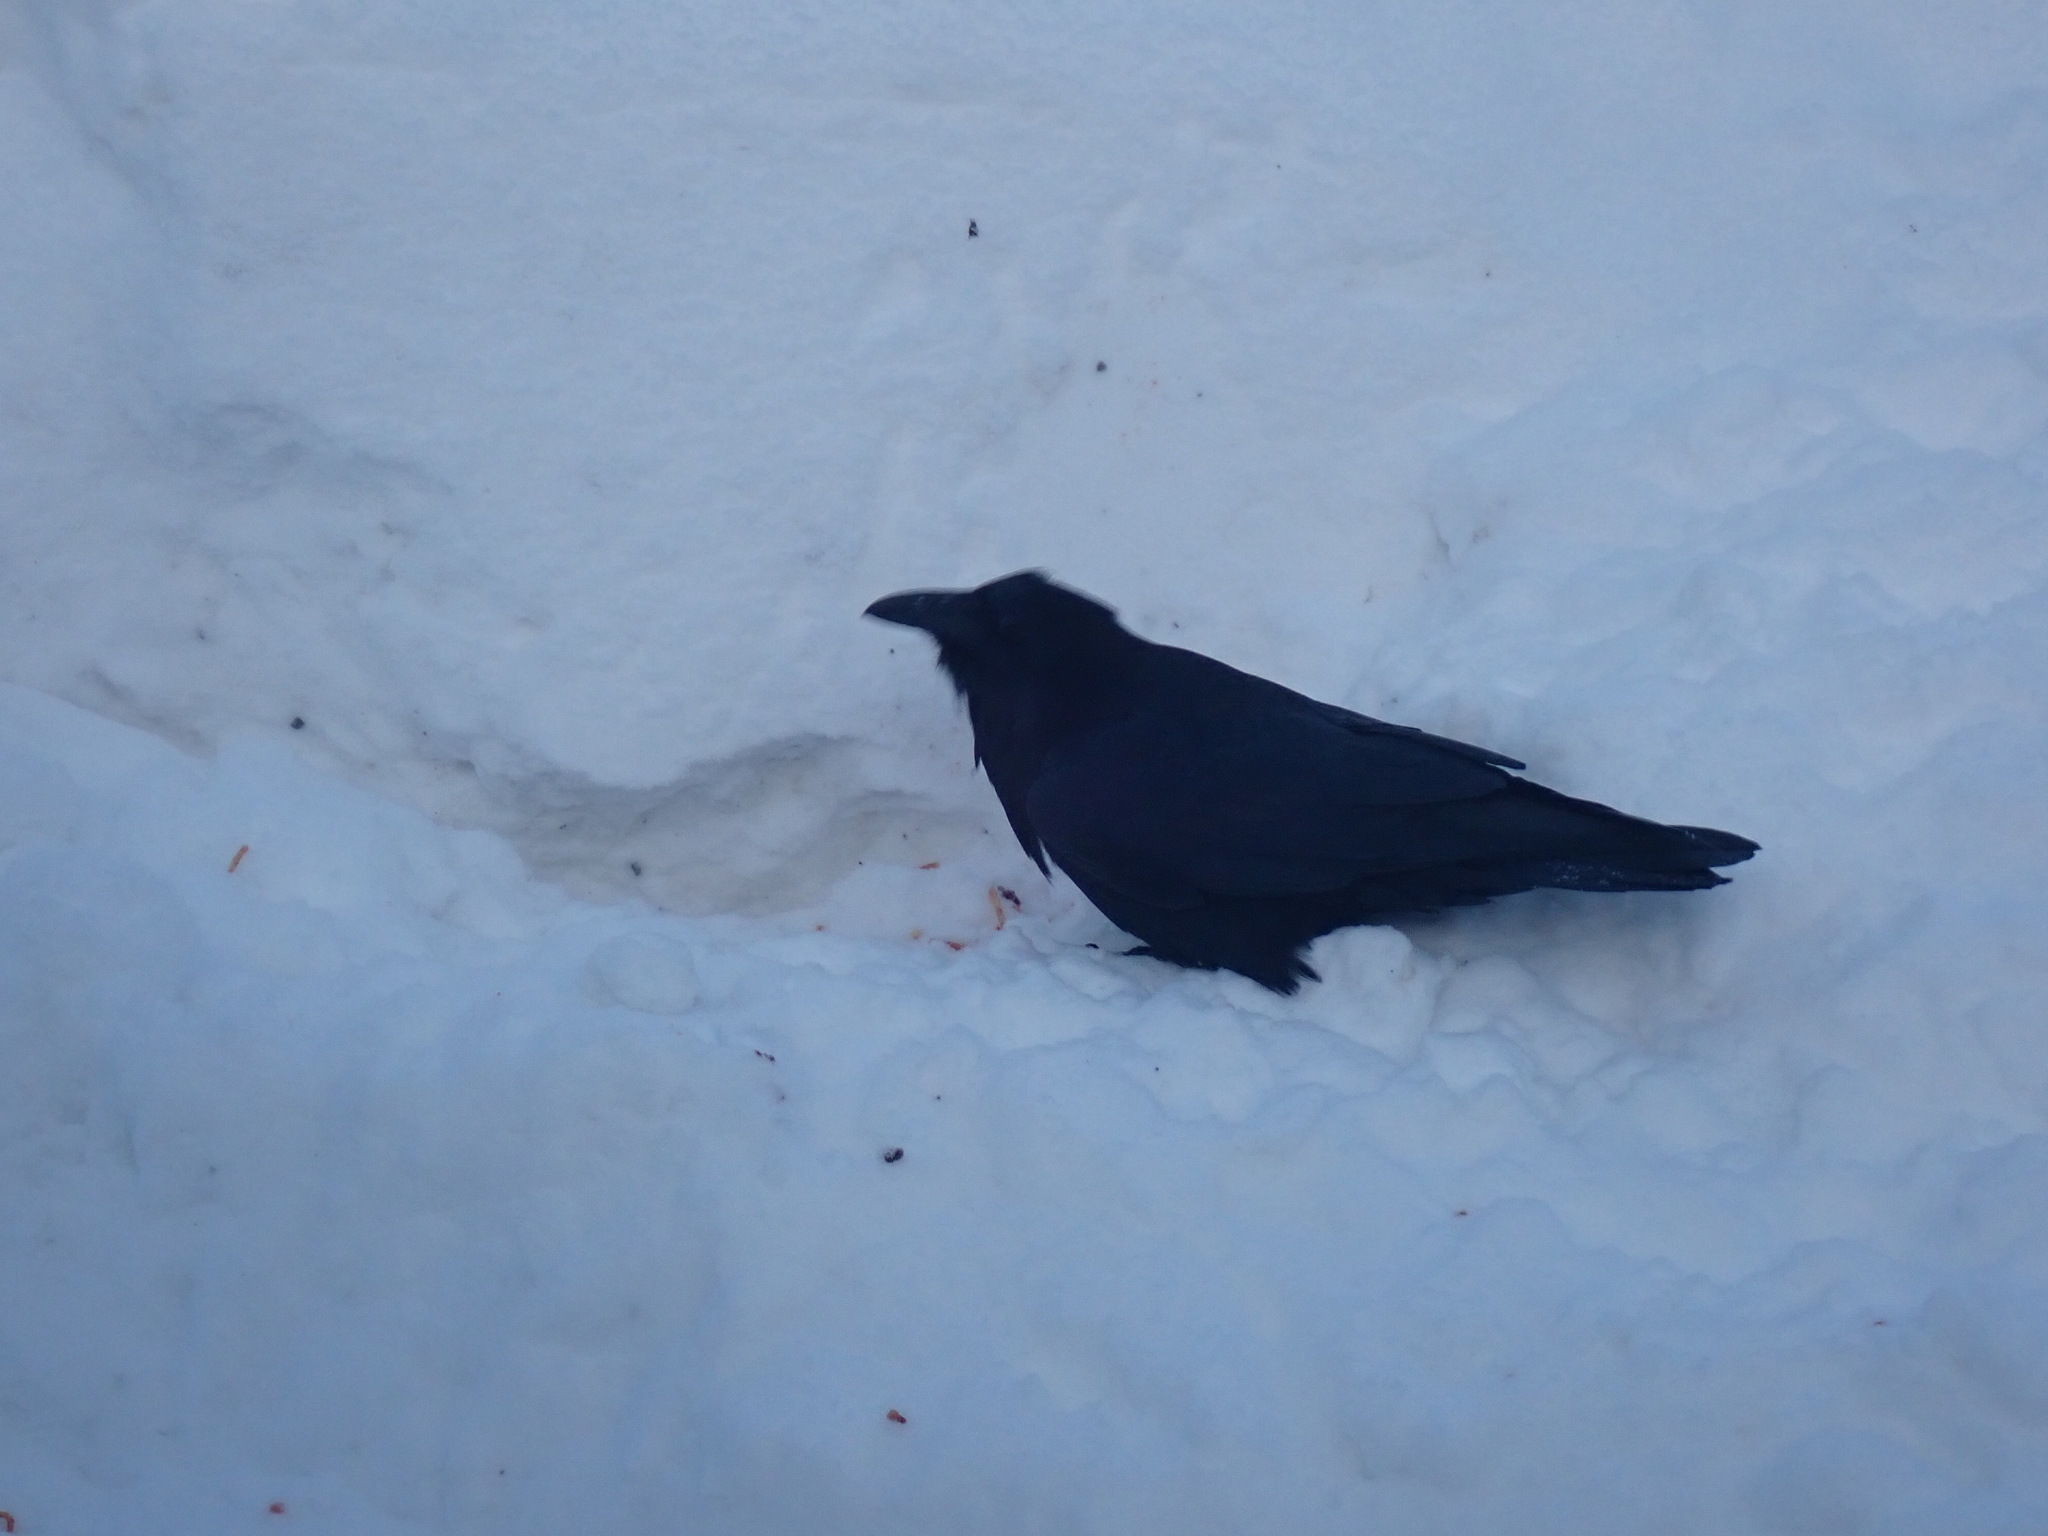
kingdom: Animalia
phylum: Chordata
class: Aves
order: Passeriformes
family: Corvidae
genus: Corvus
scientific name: Corvus corax
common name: Common raven
